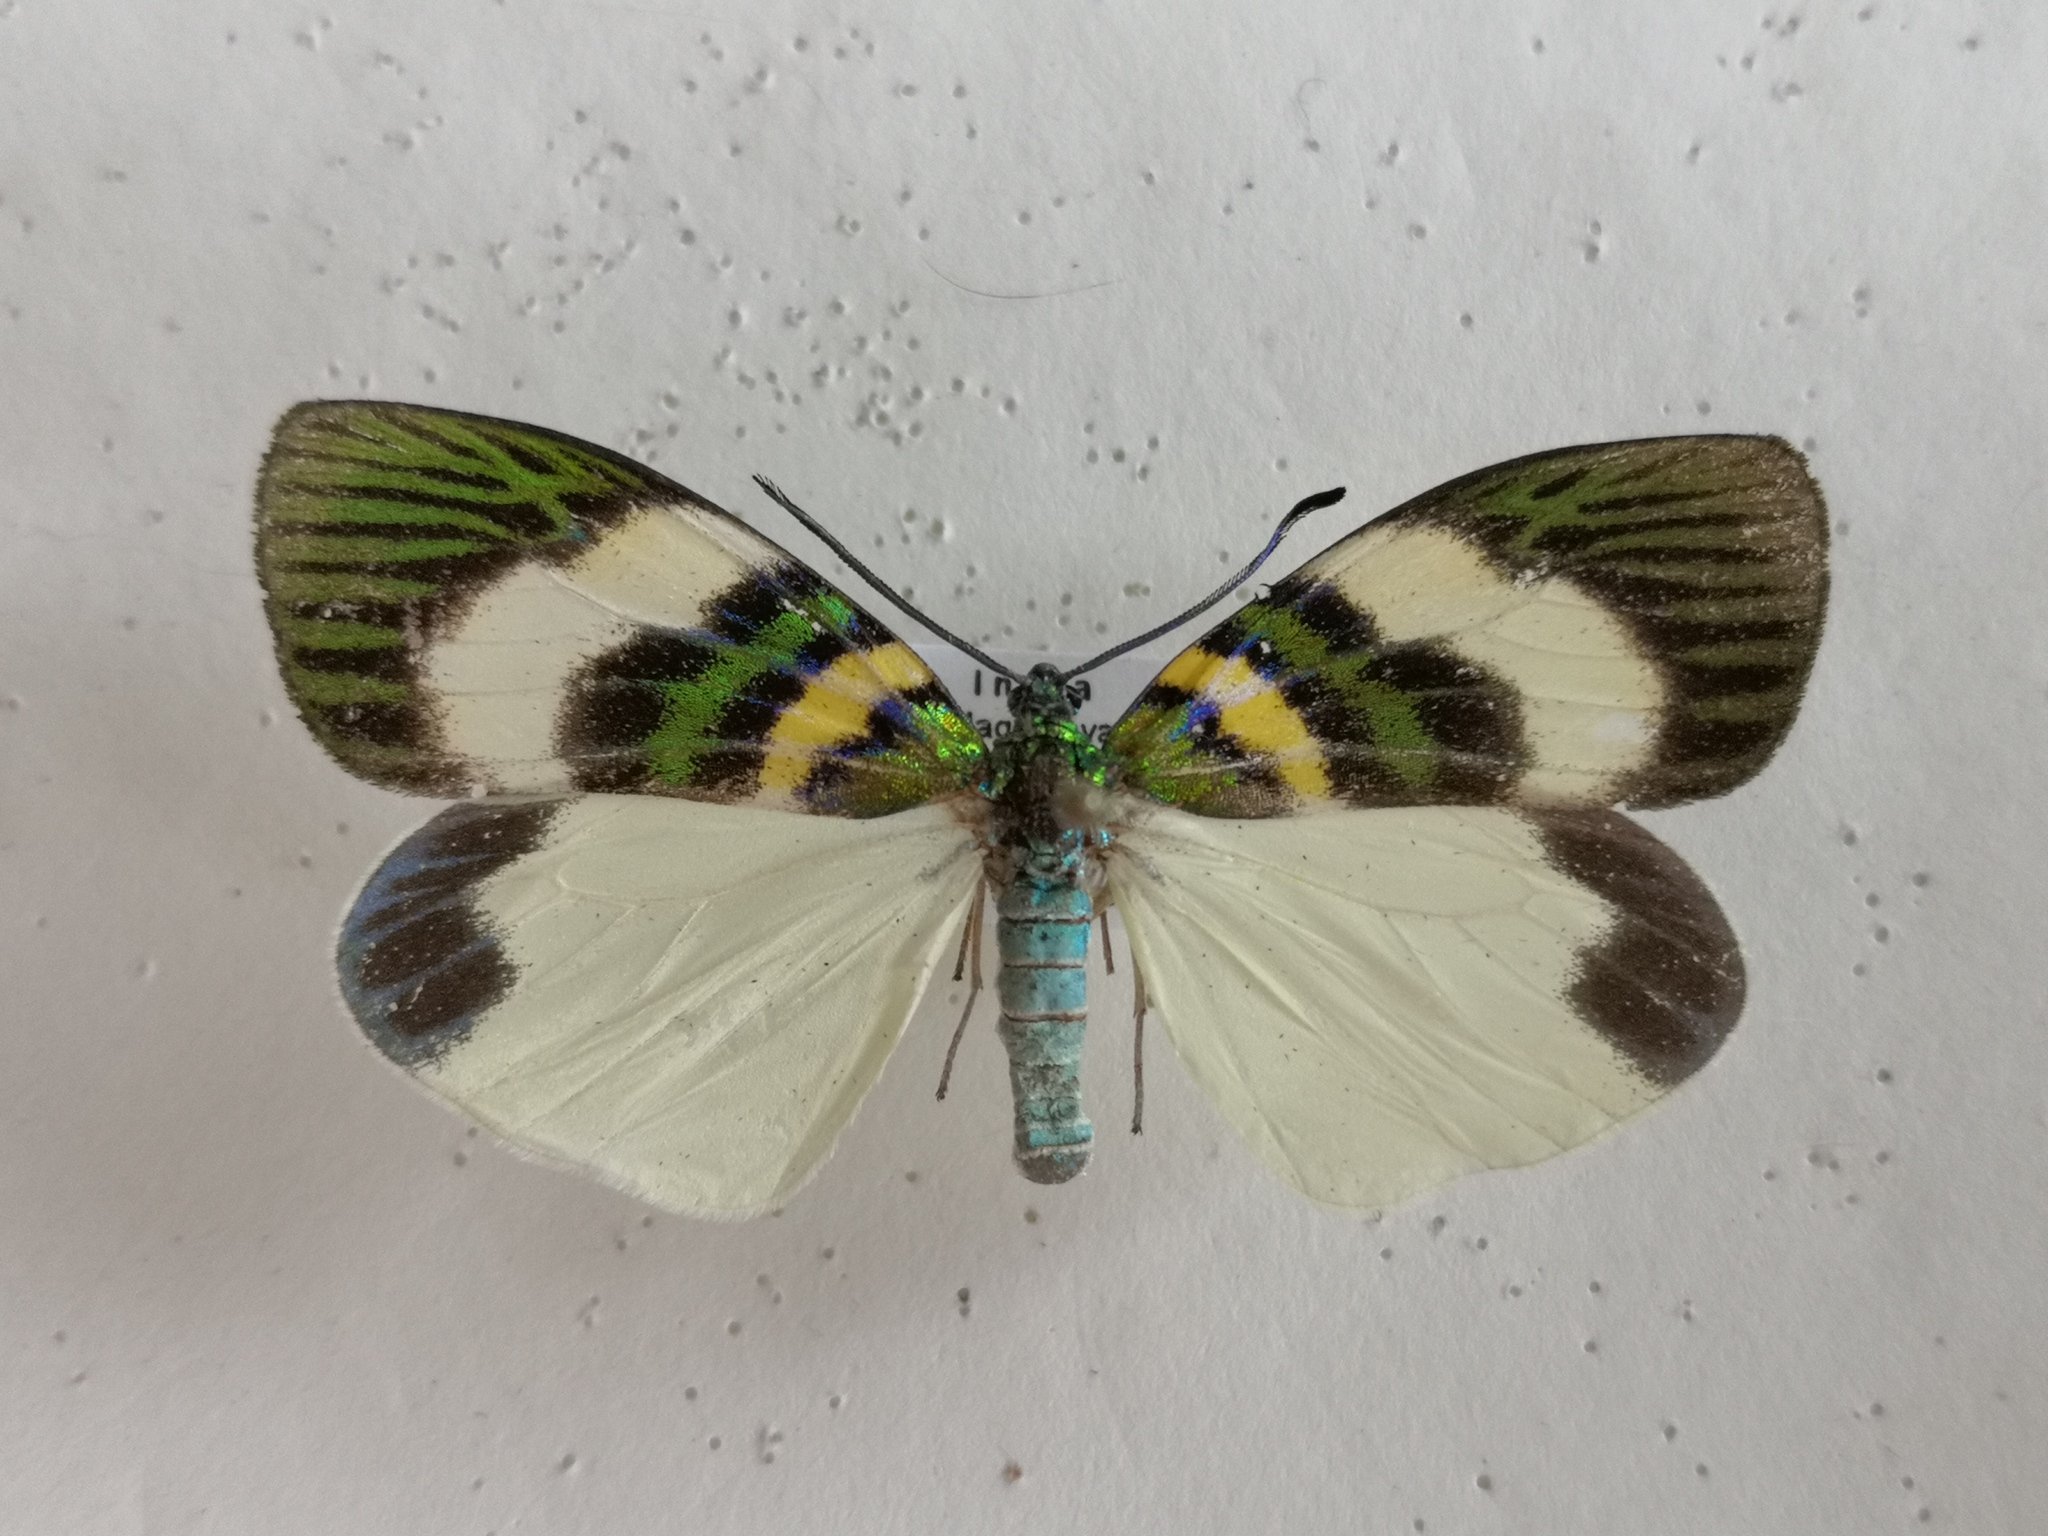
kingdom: Animalia
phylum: Arthropoda
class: Insecta
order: Lepidoptera
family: Zygaenidae
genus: Chalcophaedra
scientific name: Chalcophaedra zuleika
